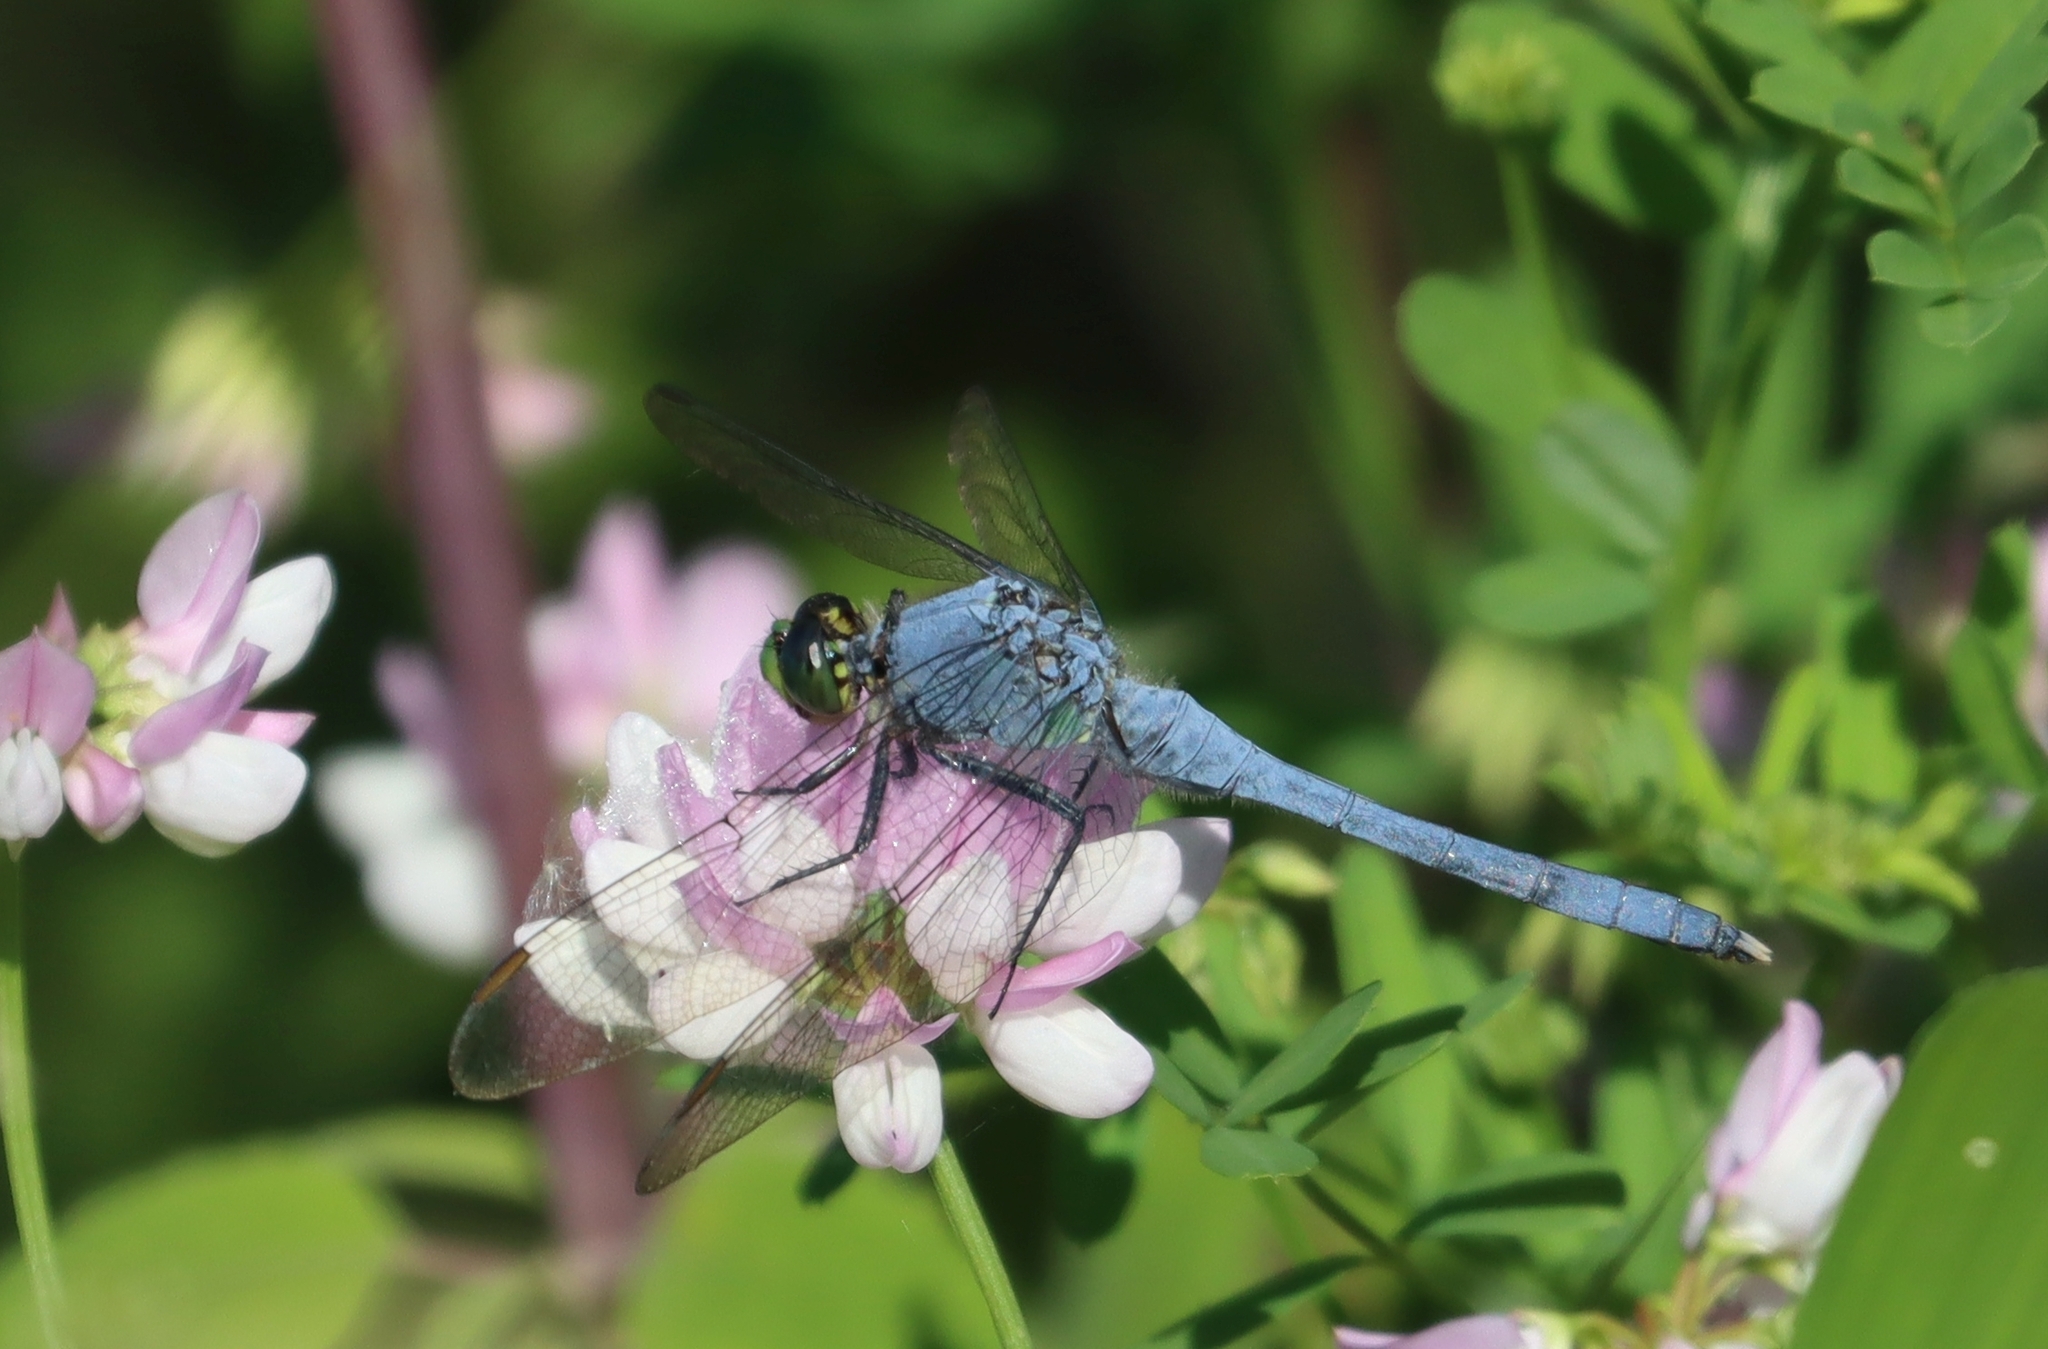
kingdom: Animalia
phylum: Arthropoda
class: Insecta
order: Odonata
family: Libellulidae
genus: Erythemis
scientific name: Erythemis simplicicollis
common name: Eastern pondhawk
